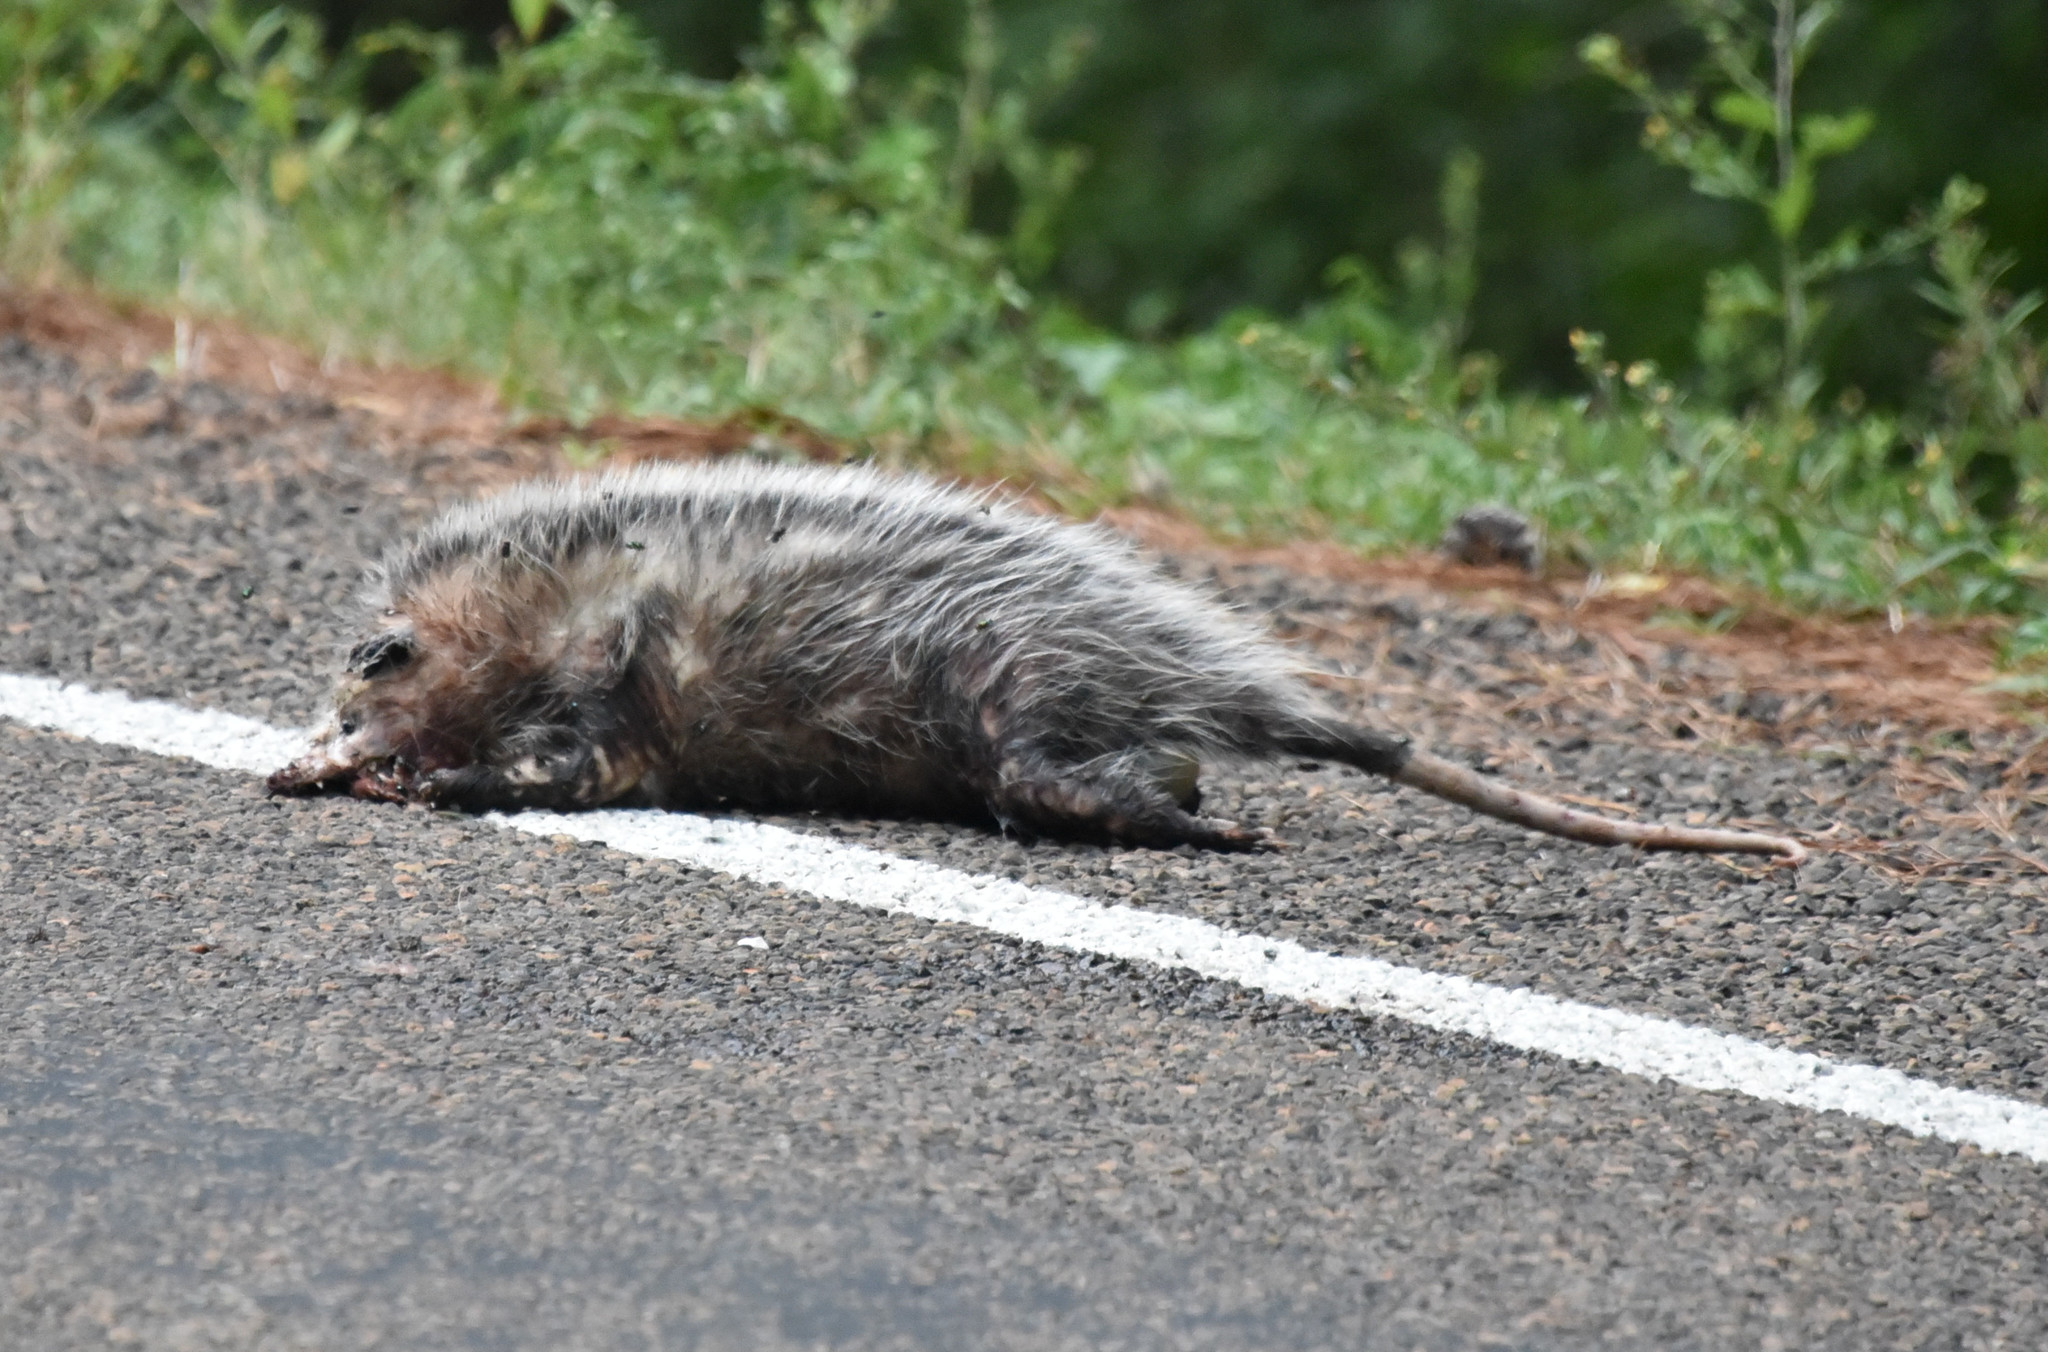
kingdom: Animalia
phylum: Chordata
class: Mammalia
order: Didelphimorphia
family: Didelphidae
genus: Didelphis
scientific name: Didelphis virginiana
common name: Virginia opossum
